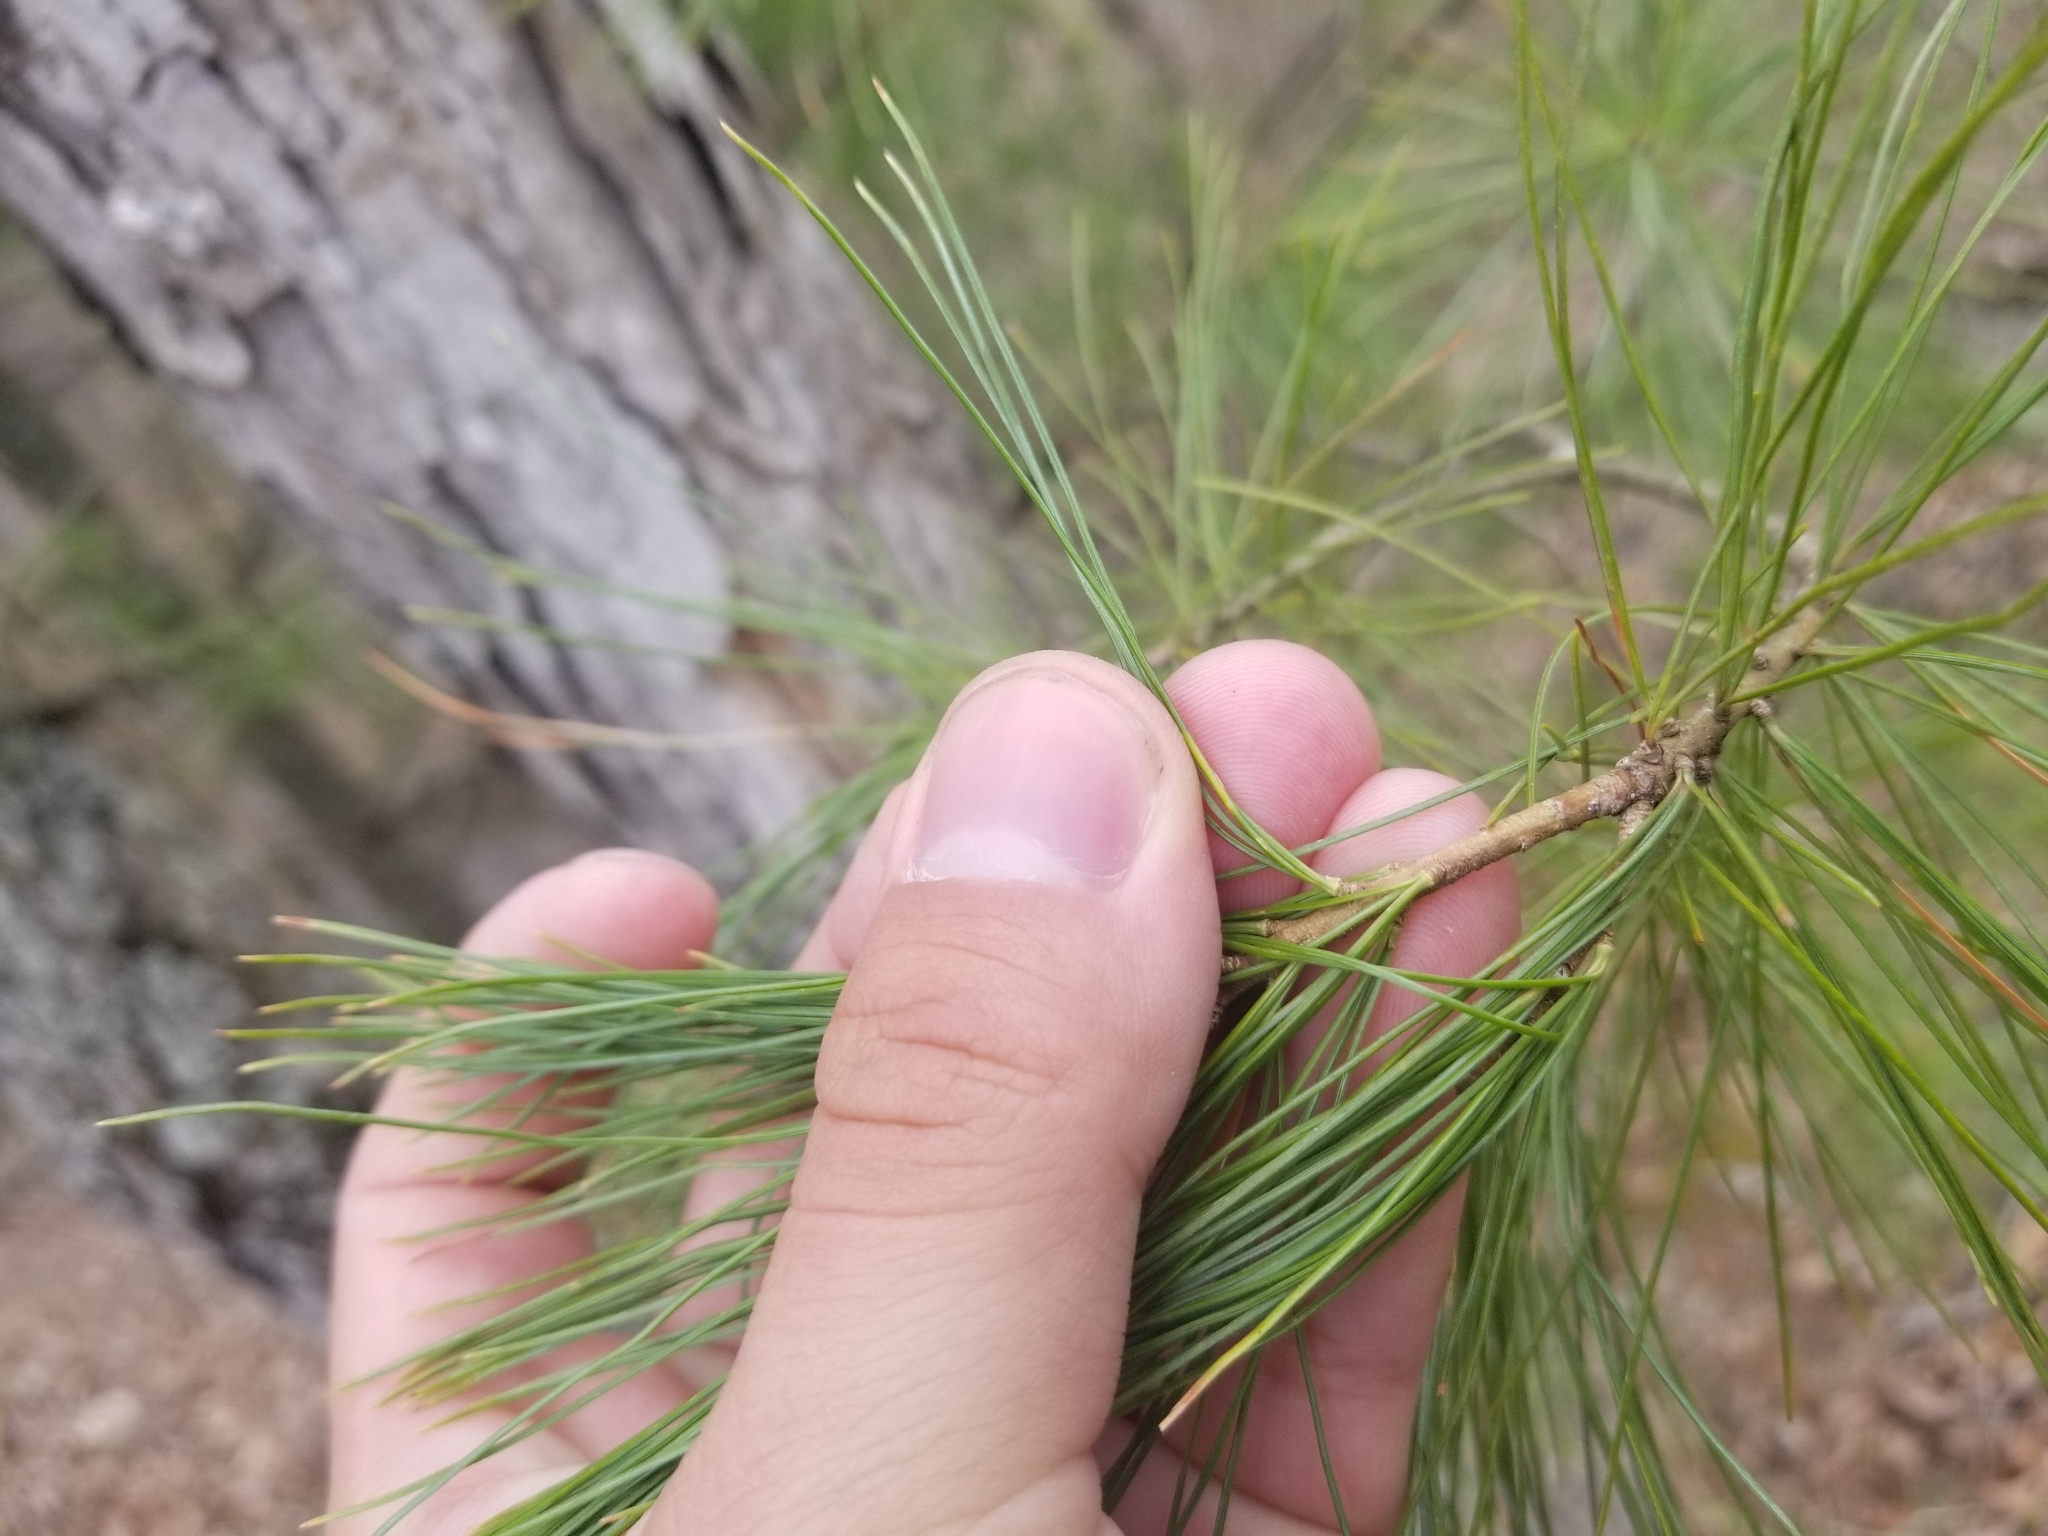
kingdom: Plantae
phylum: Tracheophyta
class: Pinopsida
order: Pinales
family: Pinaceae
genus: Pinus
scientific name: Pinus strobus
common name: Weymouth pine
